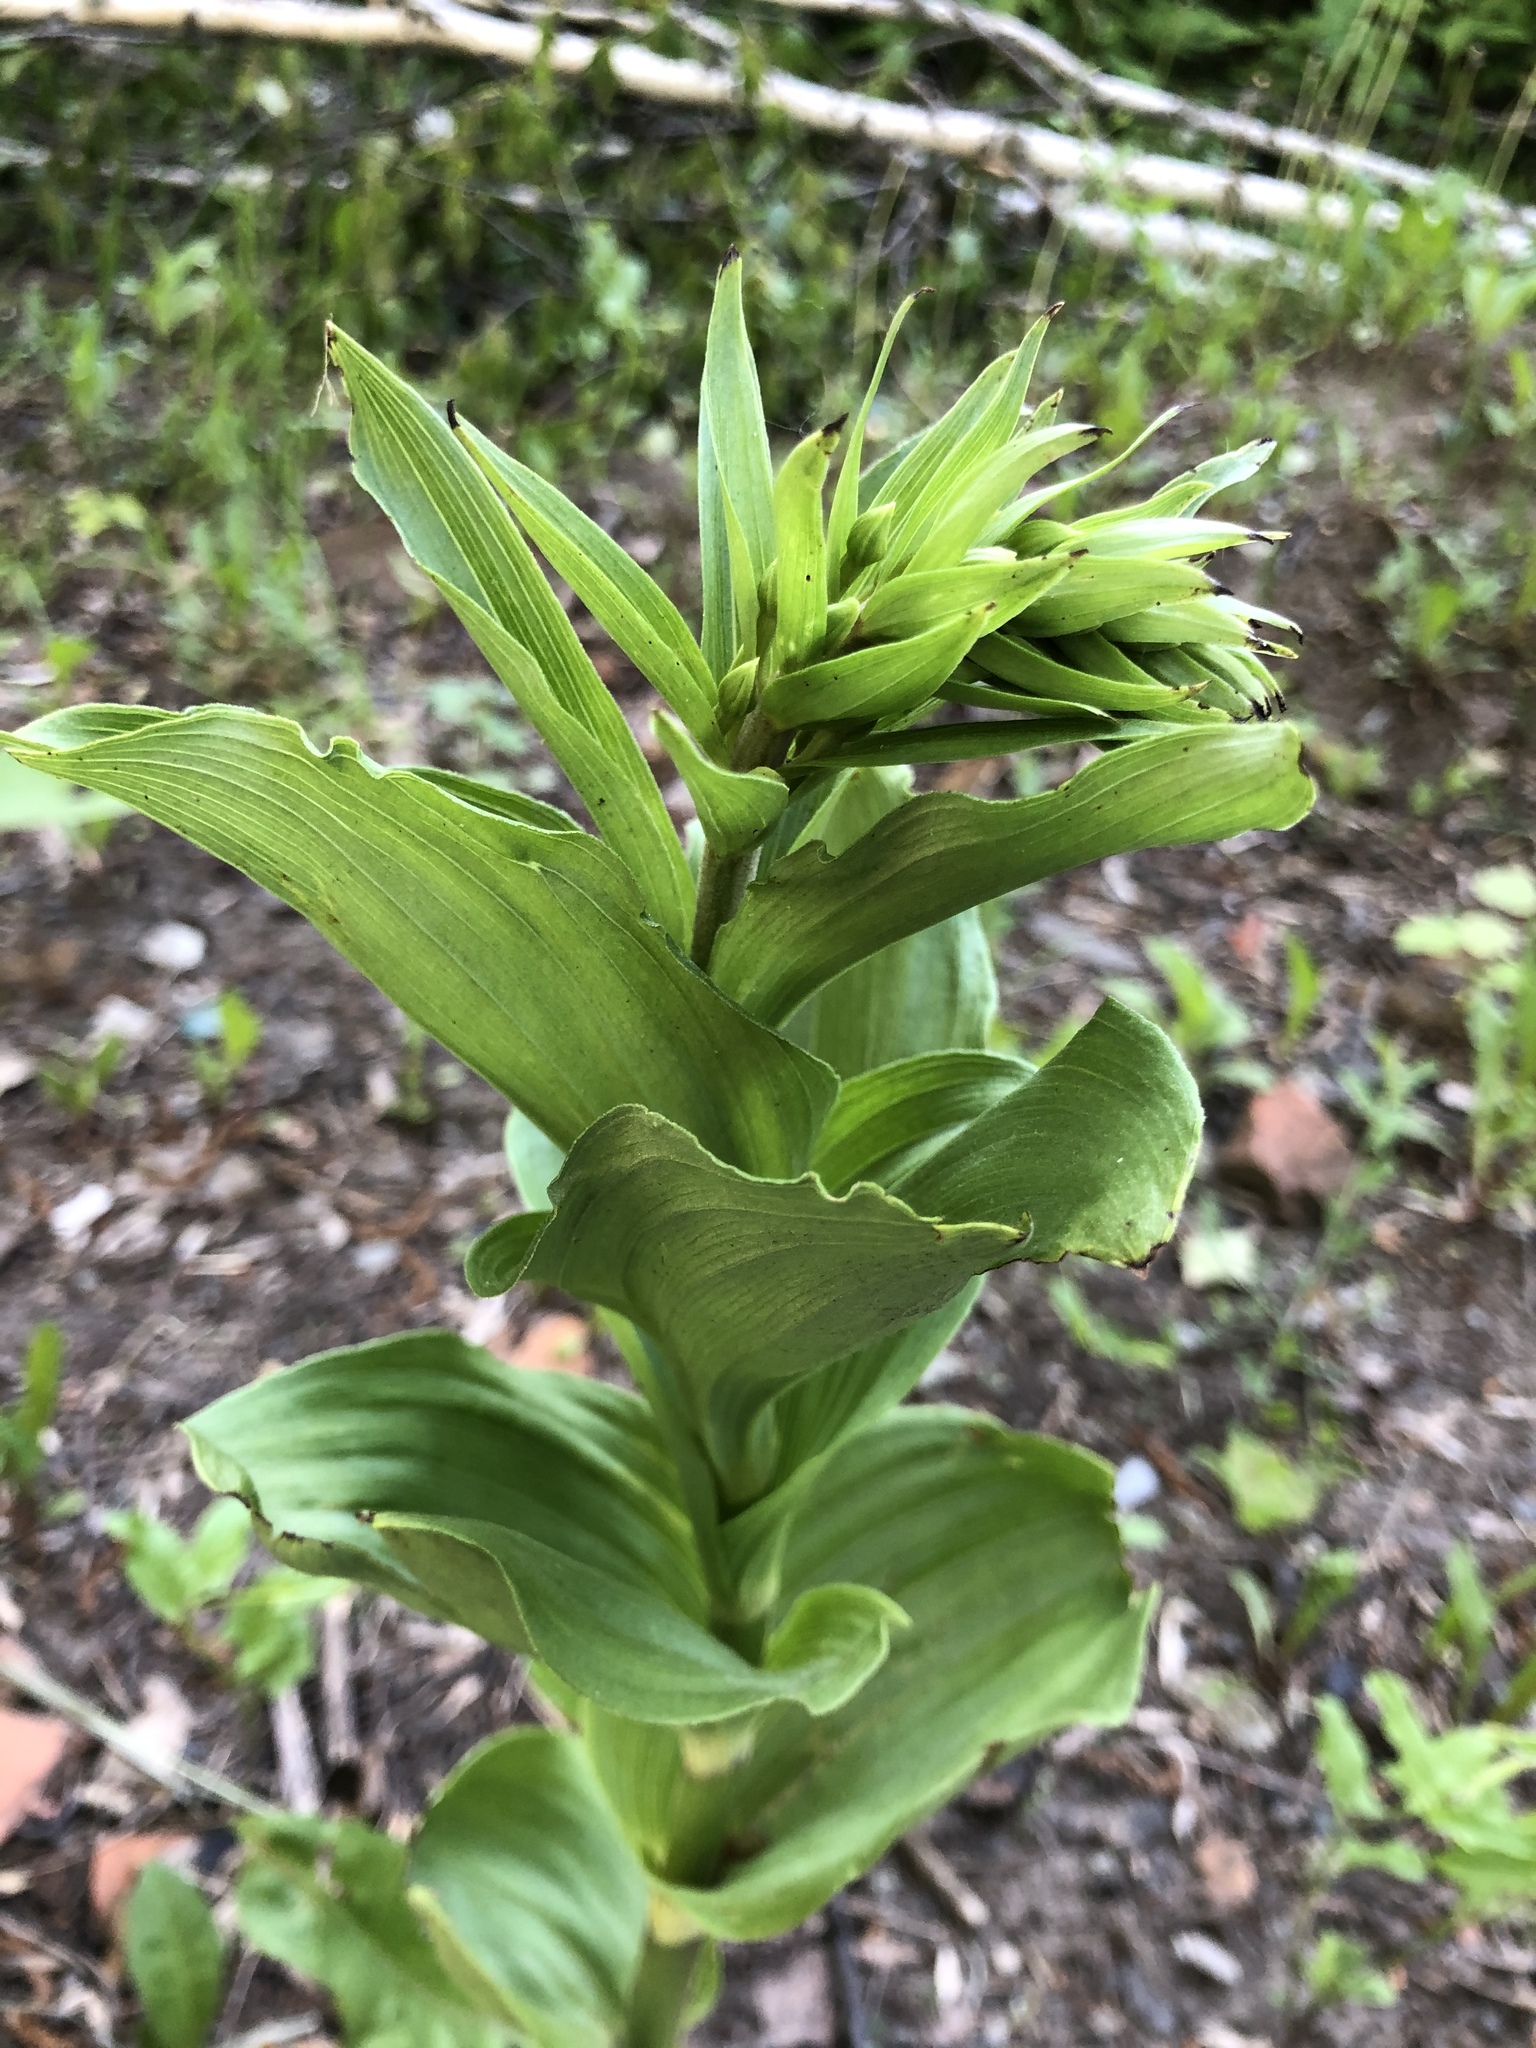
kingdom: Plantae
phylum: Tracheophyta
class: Liliopsida
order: Asparagales
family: Orchidaceae
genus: Epipactis
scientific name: Epipactis helleborine
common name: Broad-leaved helleborine
